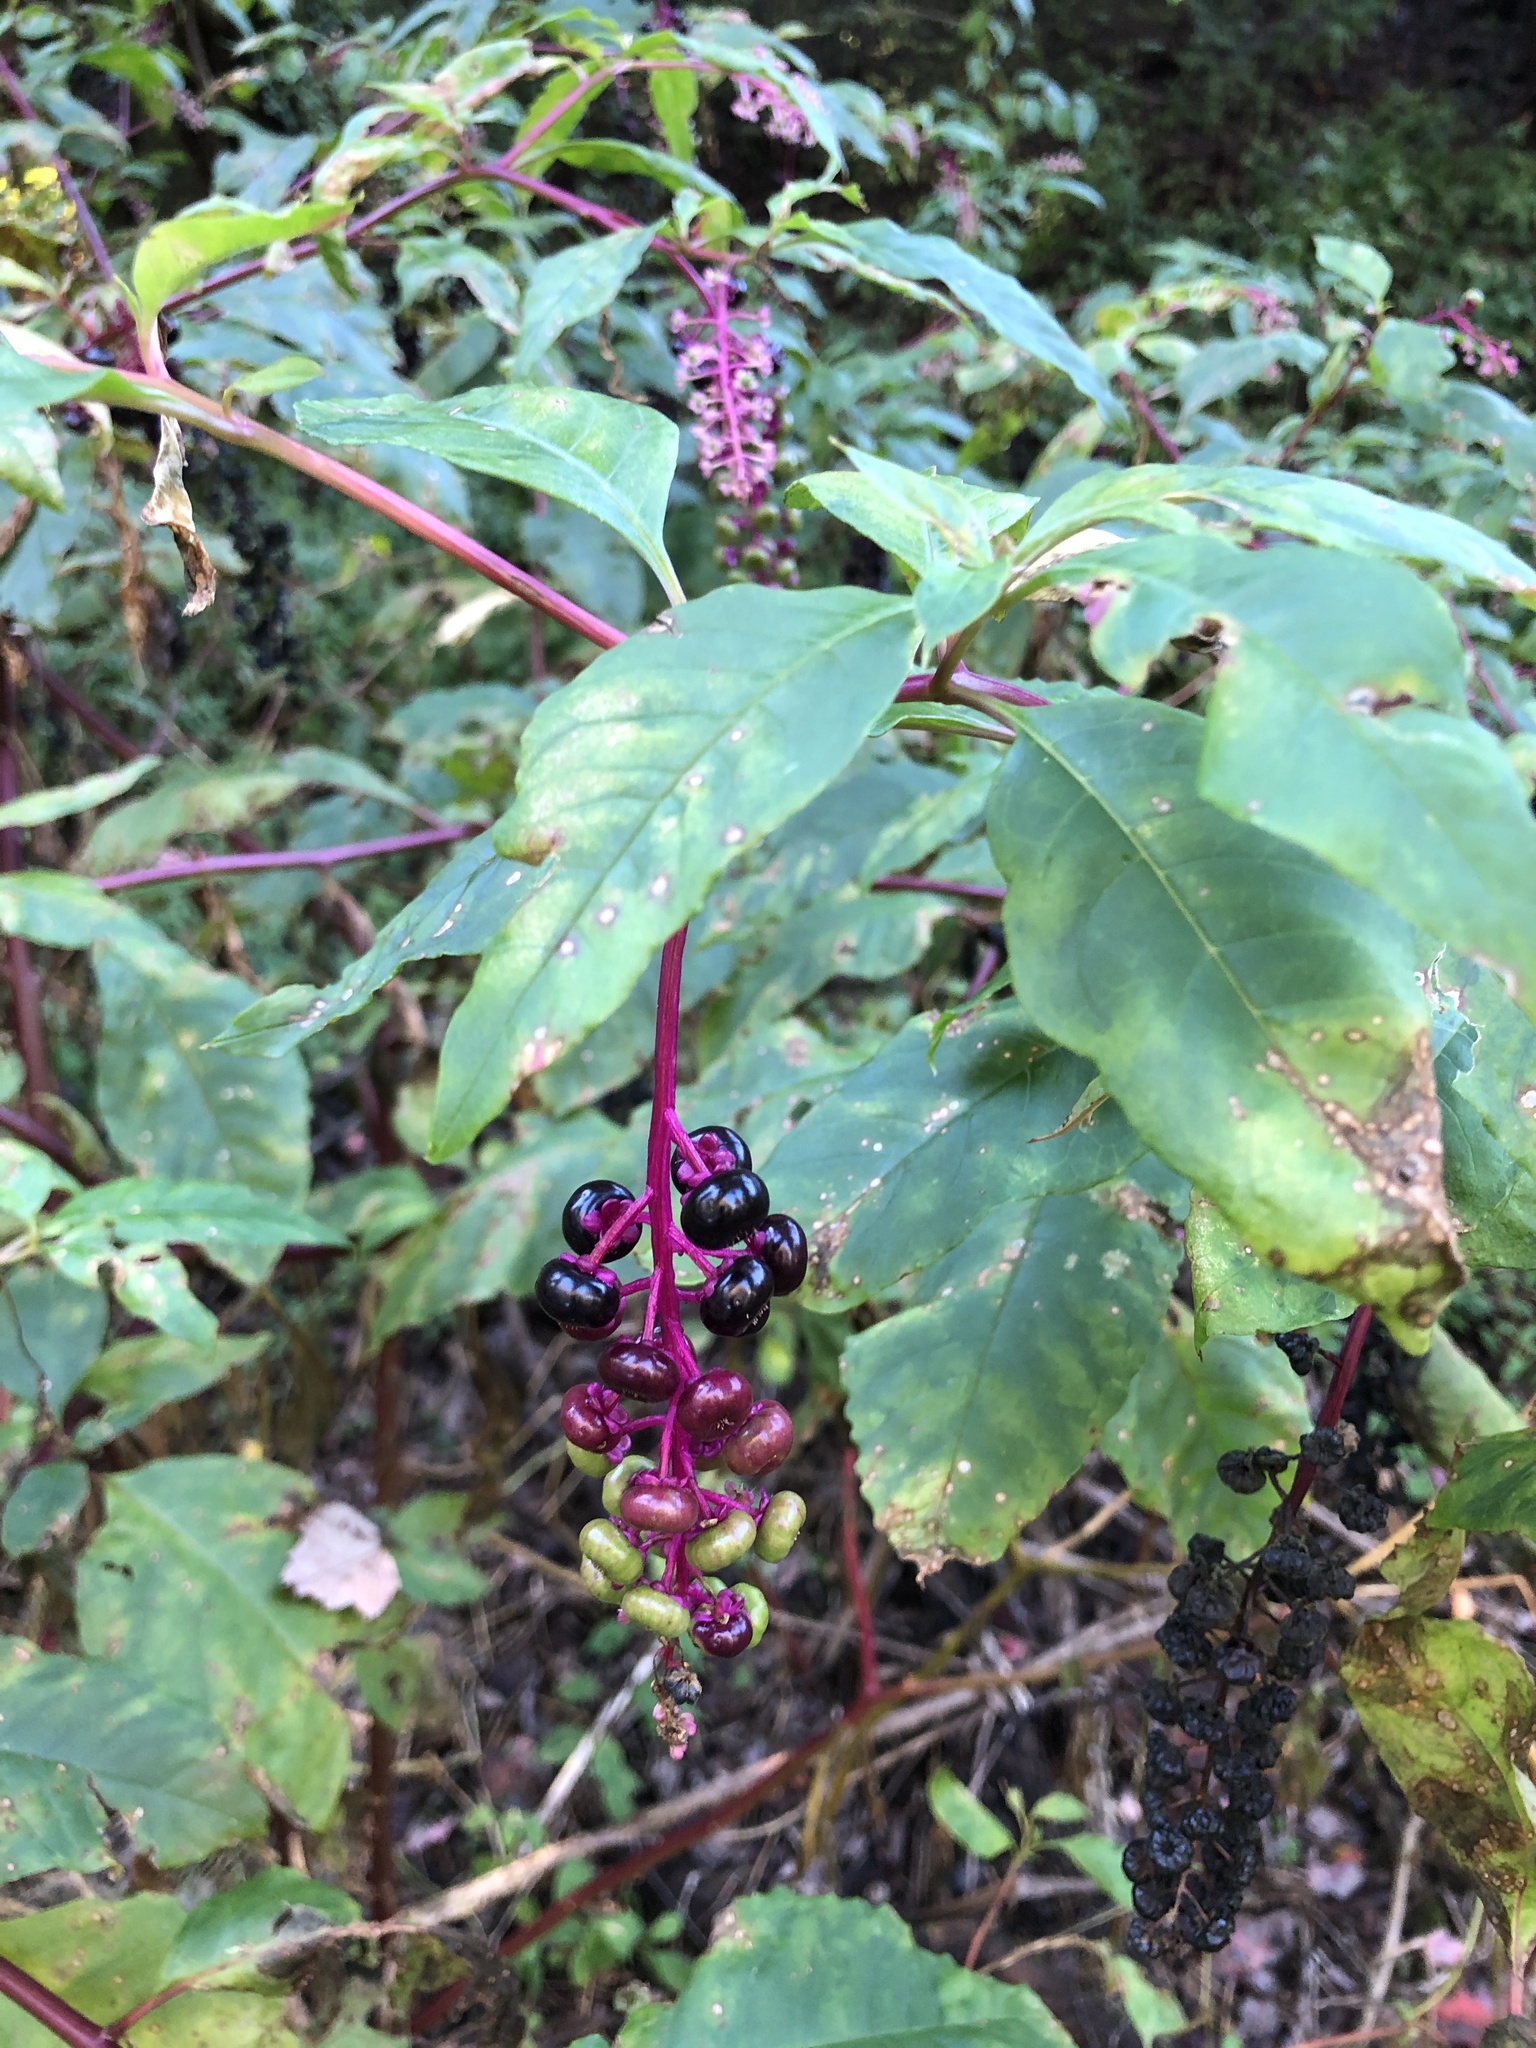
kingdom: Plantae
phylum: Tracheophyta
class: Magnoliopsida
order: Caryophyllales
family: Phytolaccaceae
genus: Phytolacca
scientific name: Phytolacca americana
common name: American pokeweed
